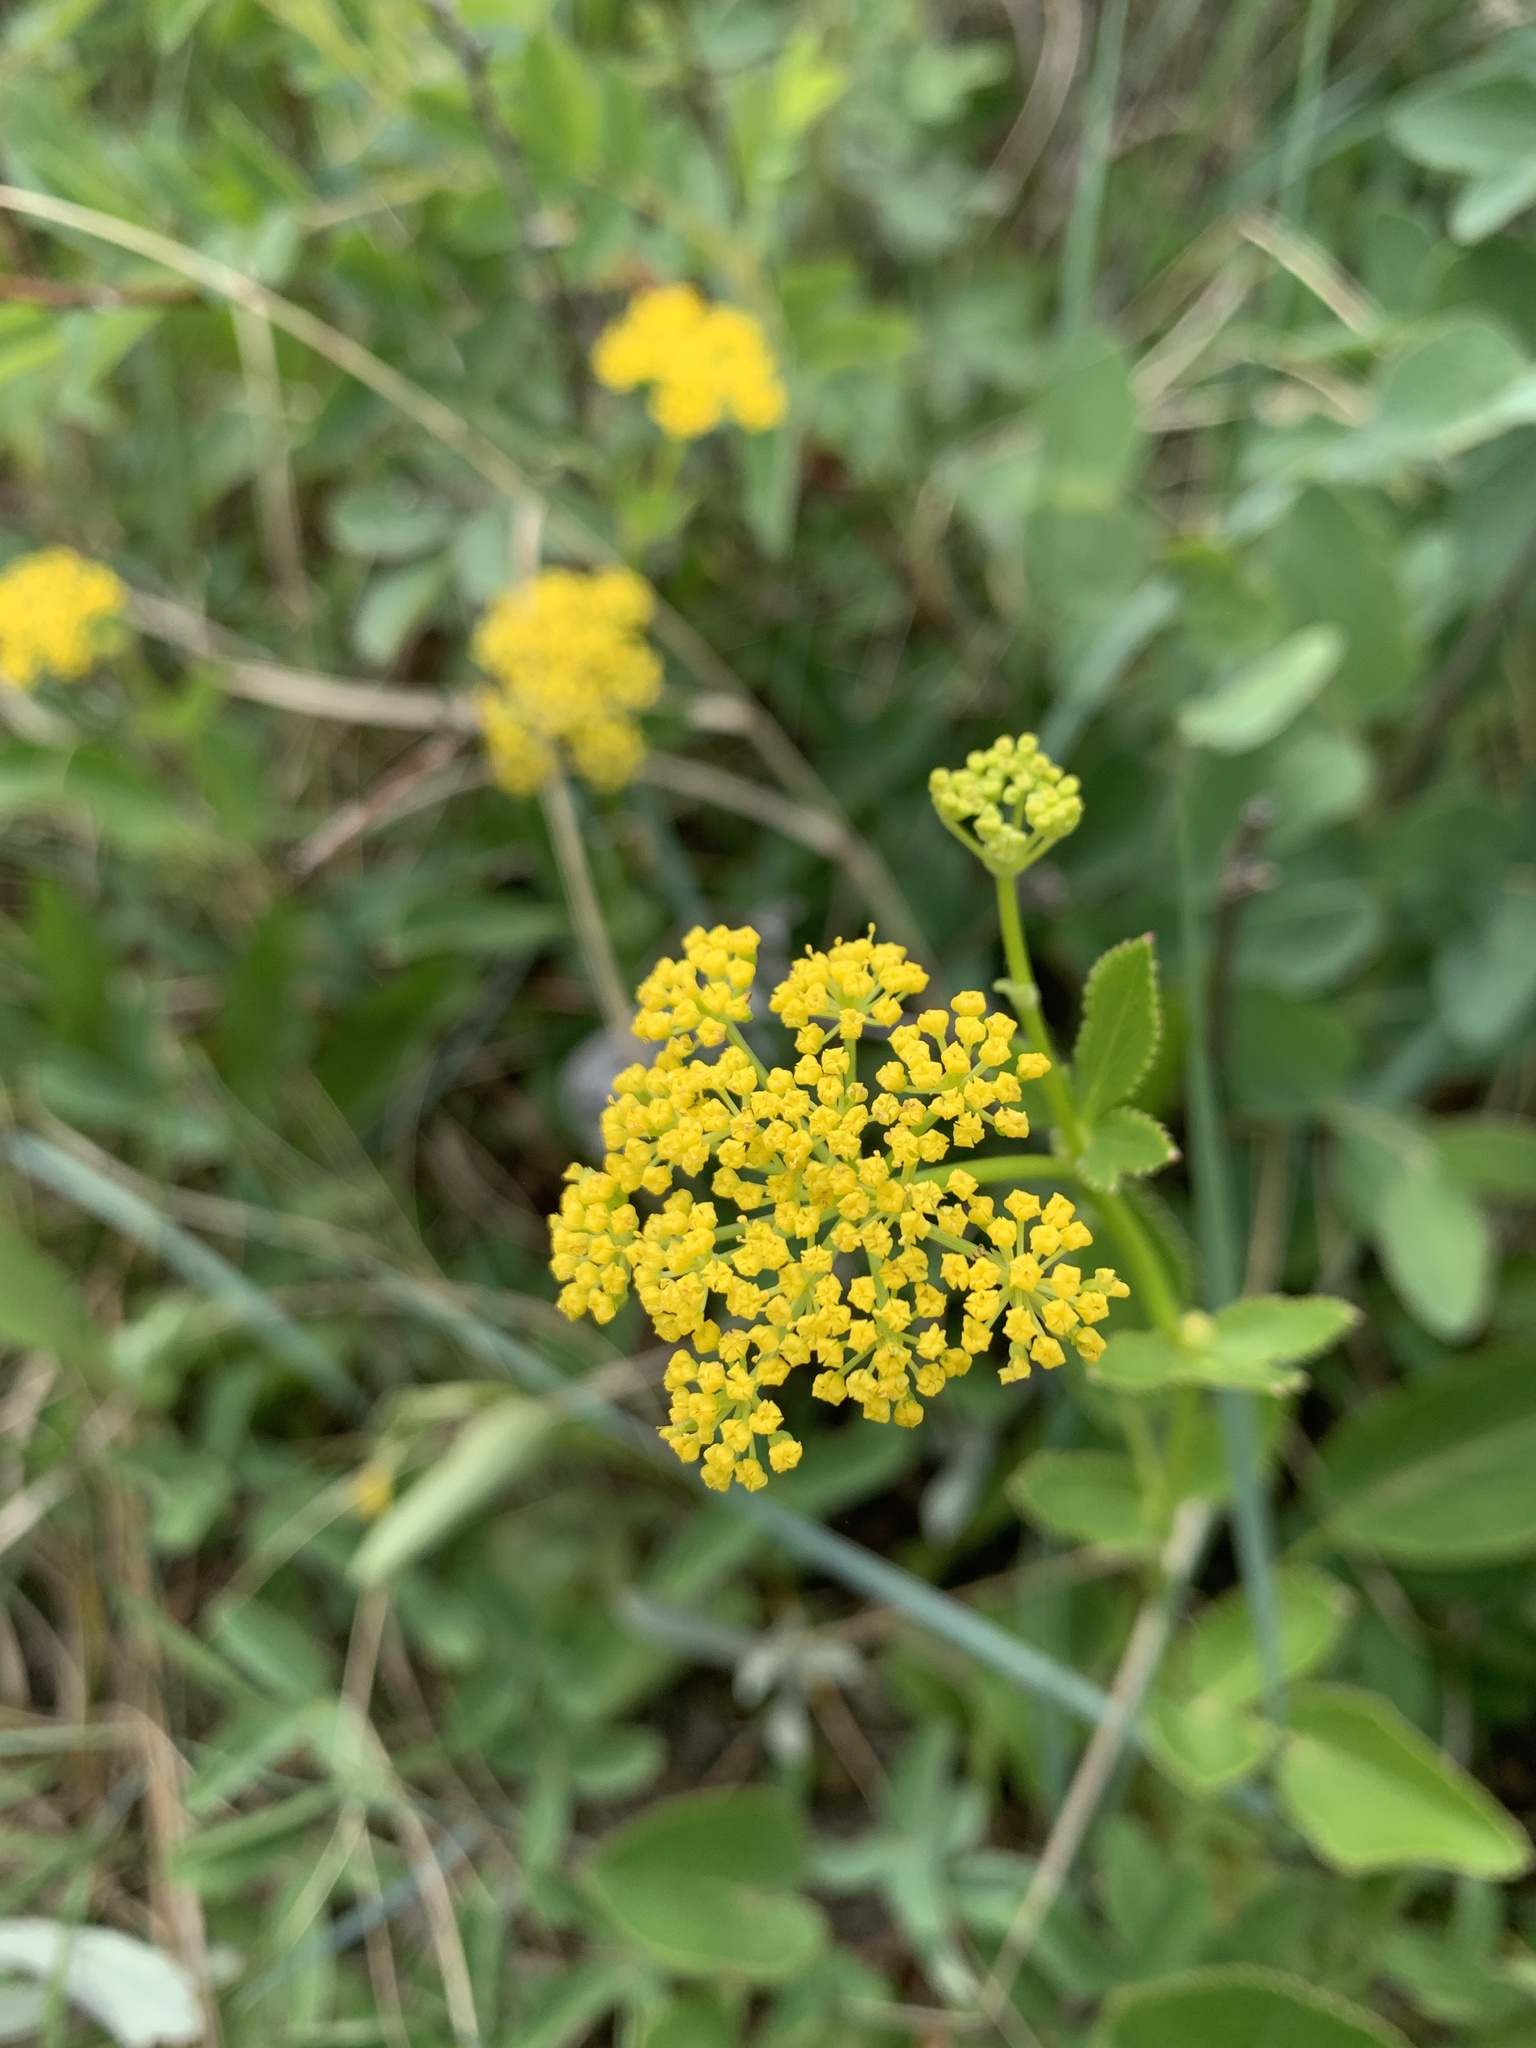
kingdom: Plantae
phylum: Tracheophyta
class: Magnoliopsida
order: Apiales
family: Apiaceae
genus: Zizia
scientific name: Zizia aptera
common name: Heart-leaved alexanders
